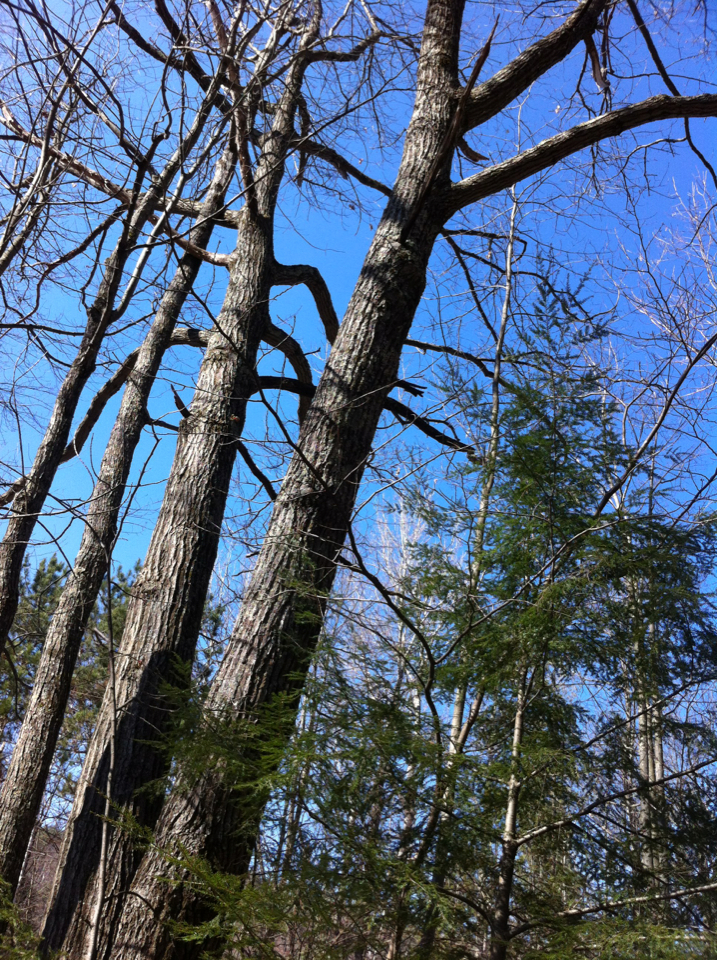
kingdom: Plantae
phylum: Tracheophyta
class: Magnoliopsida
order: Fagales
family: Fagaceae
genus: Quercus
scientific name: Quercus rubra
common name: Red oak
